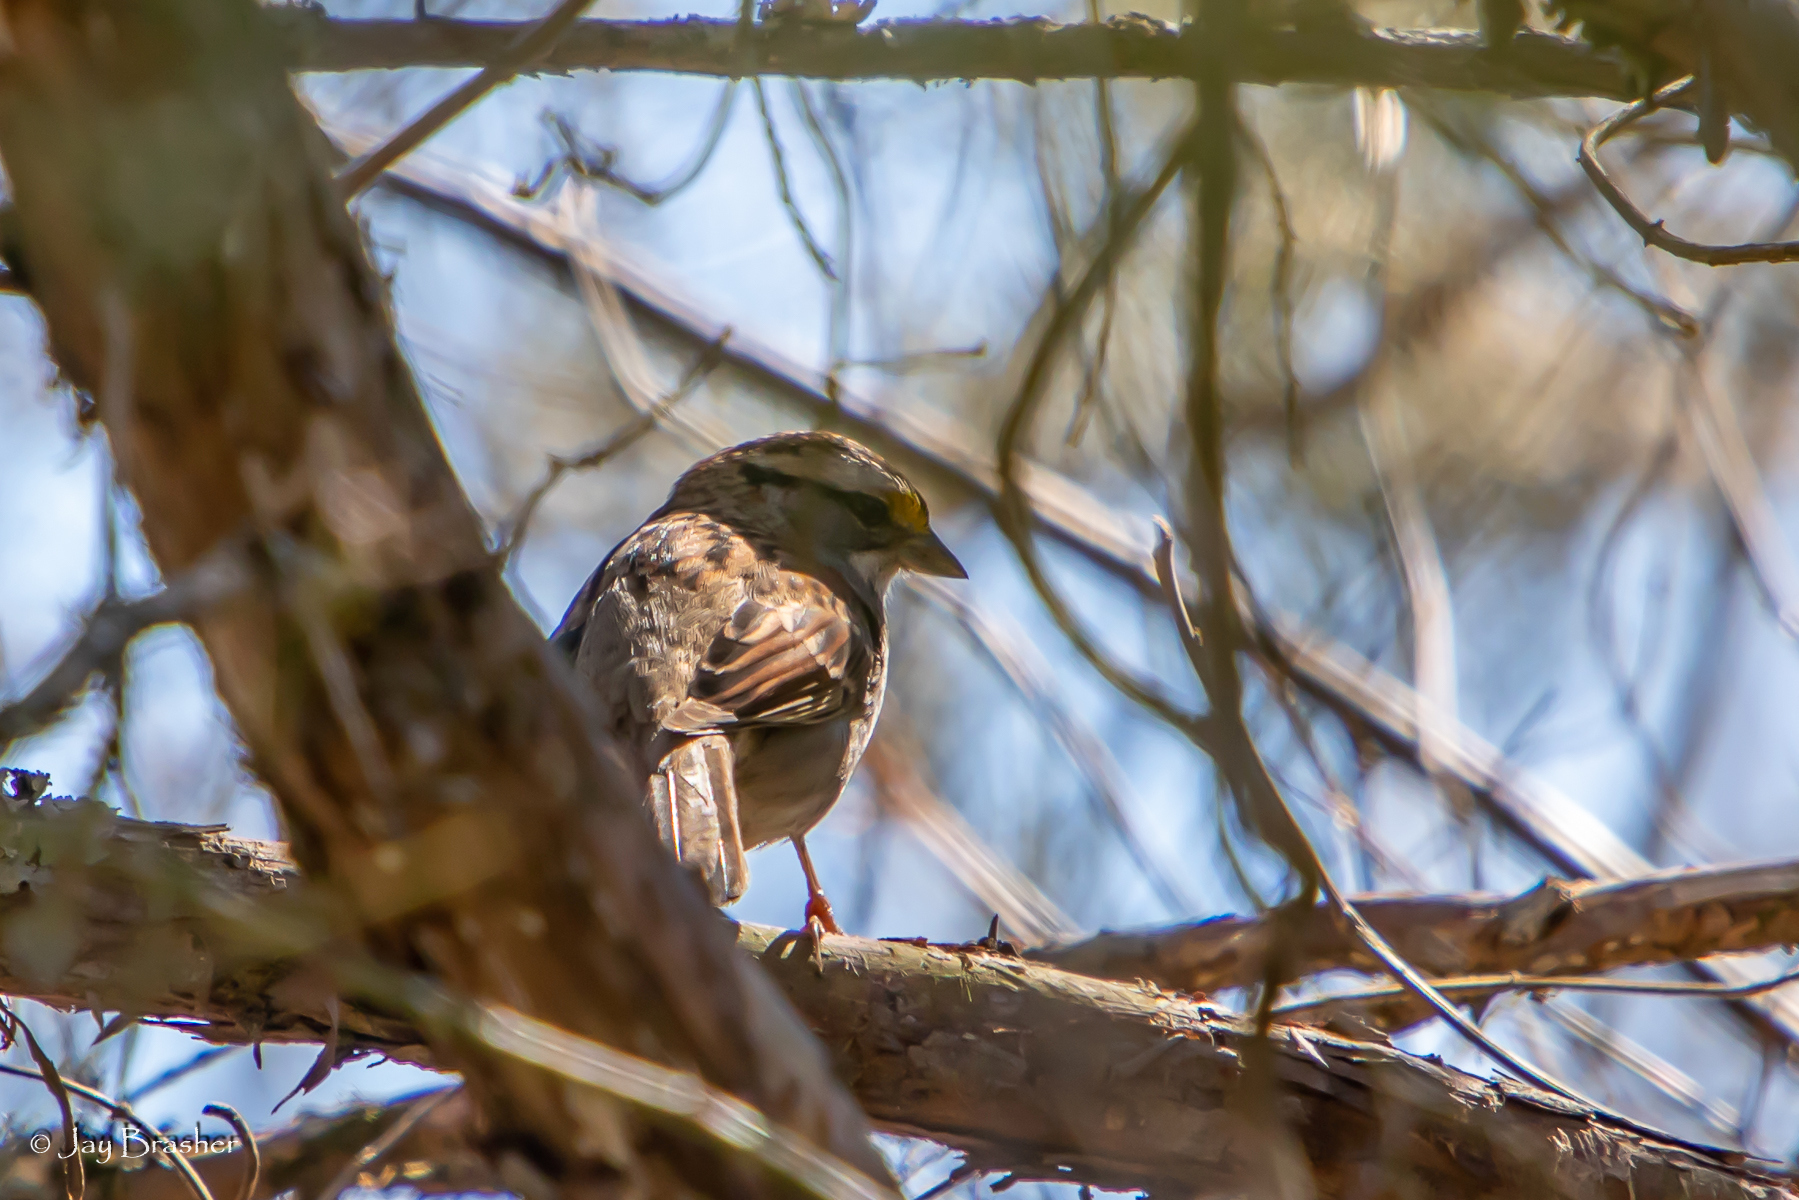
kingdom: Animalia
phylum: Chordata
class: Aves
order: Passeriformes
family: Passerellidae
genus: Zonotrichia
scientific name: Zonotrichia albicollis
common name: White-throated sparrow
